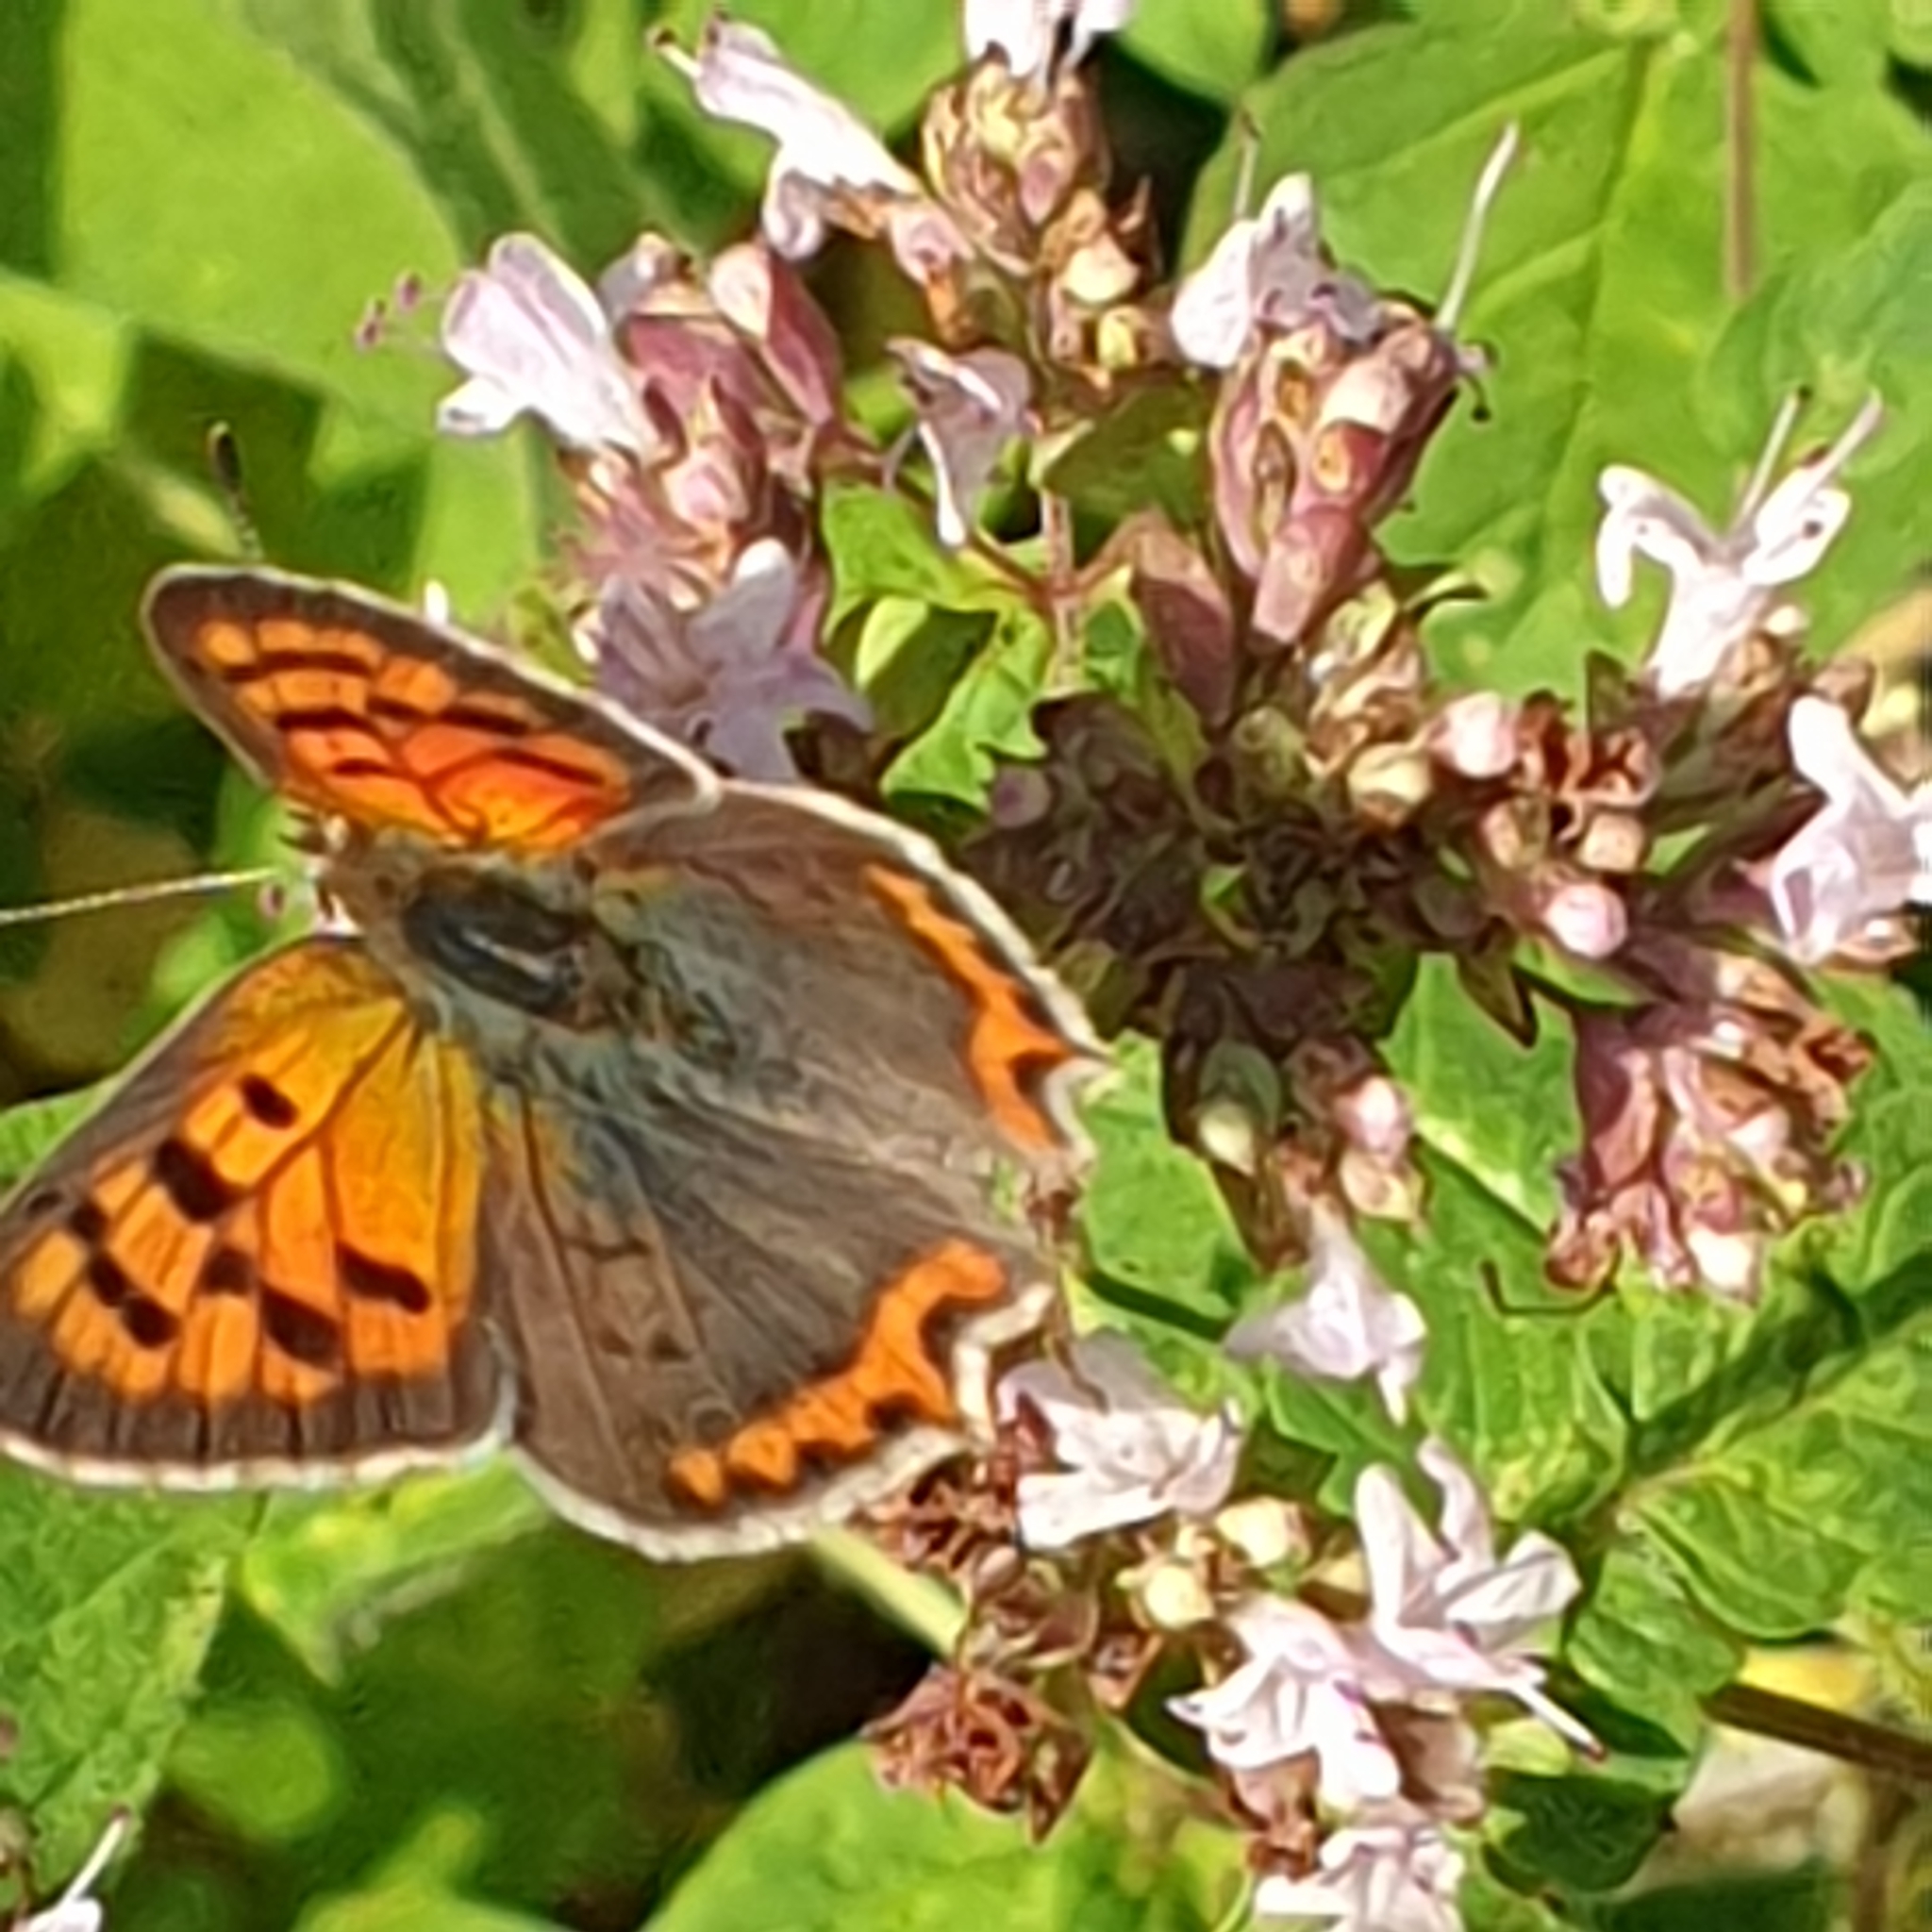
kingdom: Animalia
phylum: Arthropoda
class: Insecta
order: Lepidoptera
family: Lycaenidae
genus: Lycaena
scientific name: Lycaena phlaeas
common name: Small copper
